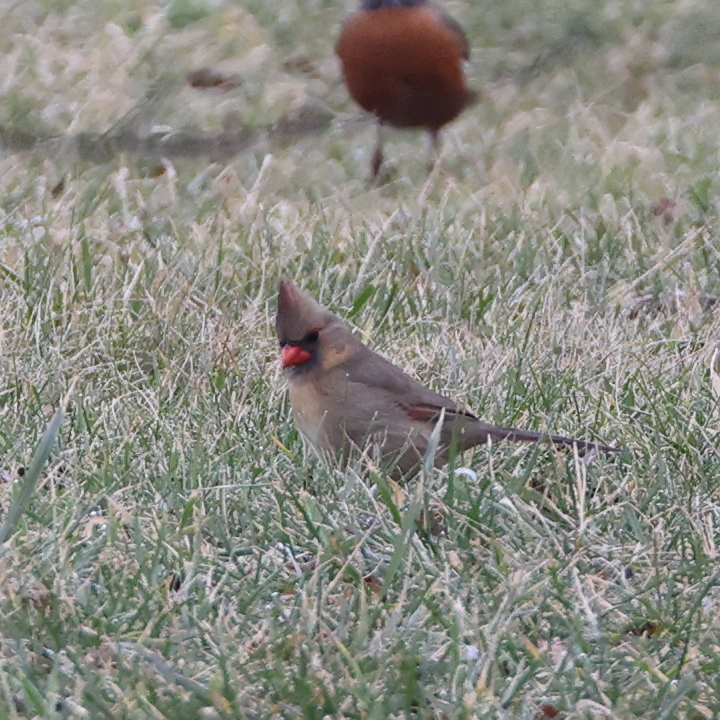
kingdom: Animalia
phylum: Chordata
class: Aves
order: Passeriformes
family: Cardinalidae
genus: Cardinalis
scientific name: Cardinalis cardinalis
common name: Northern cardinal
